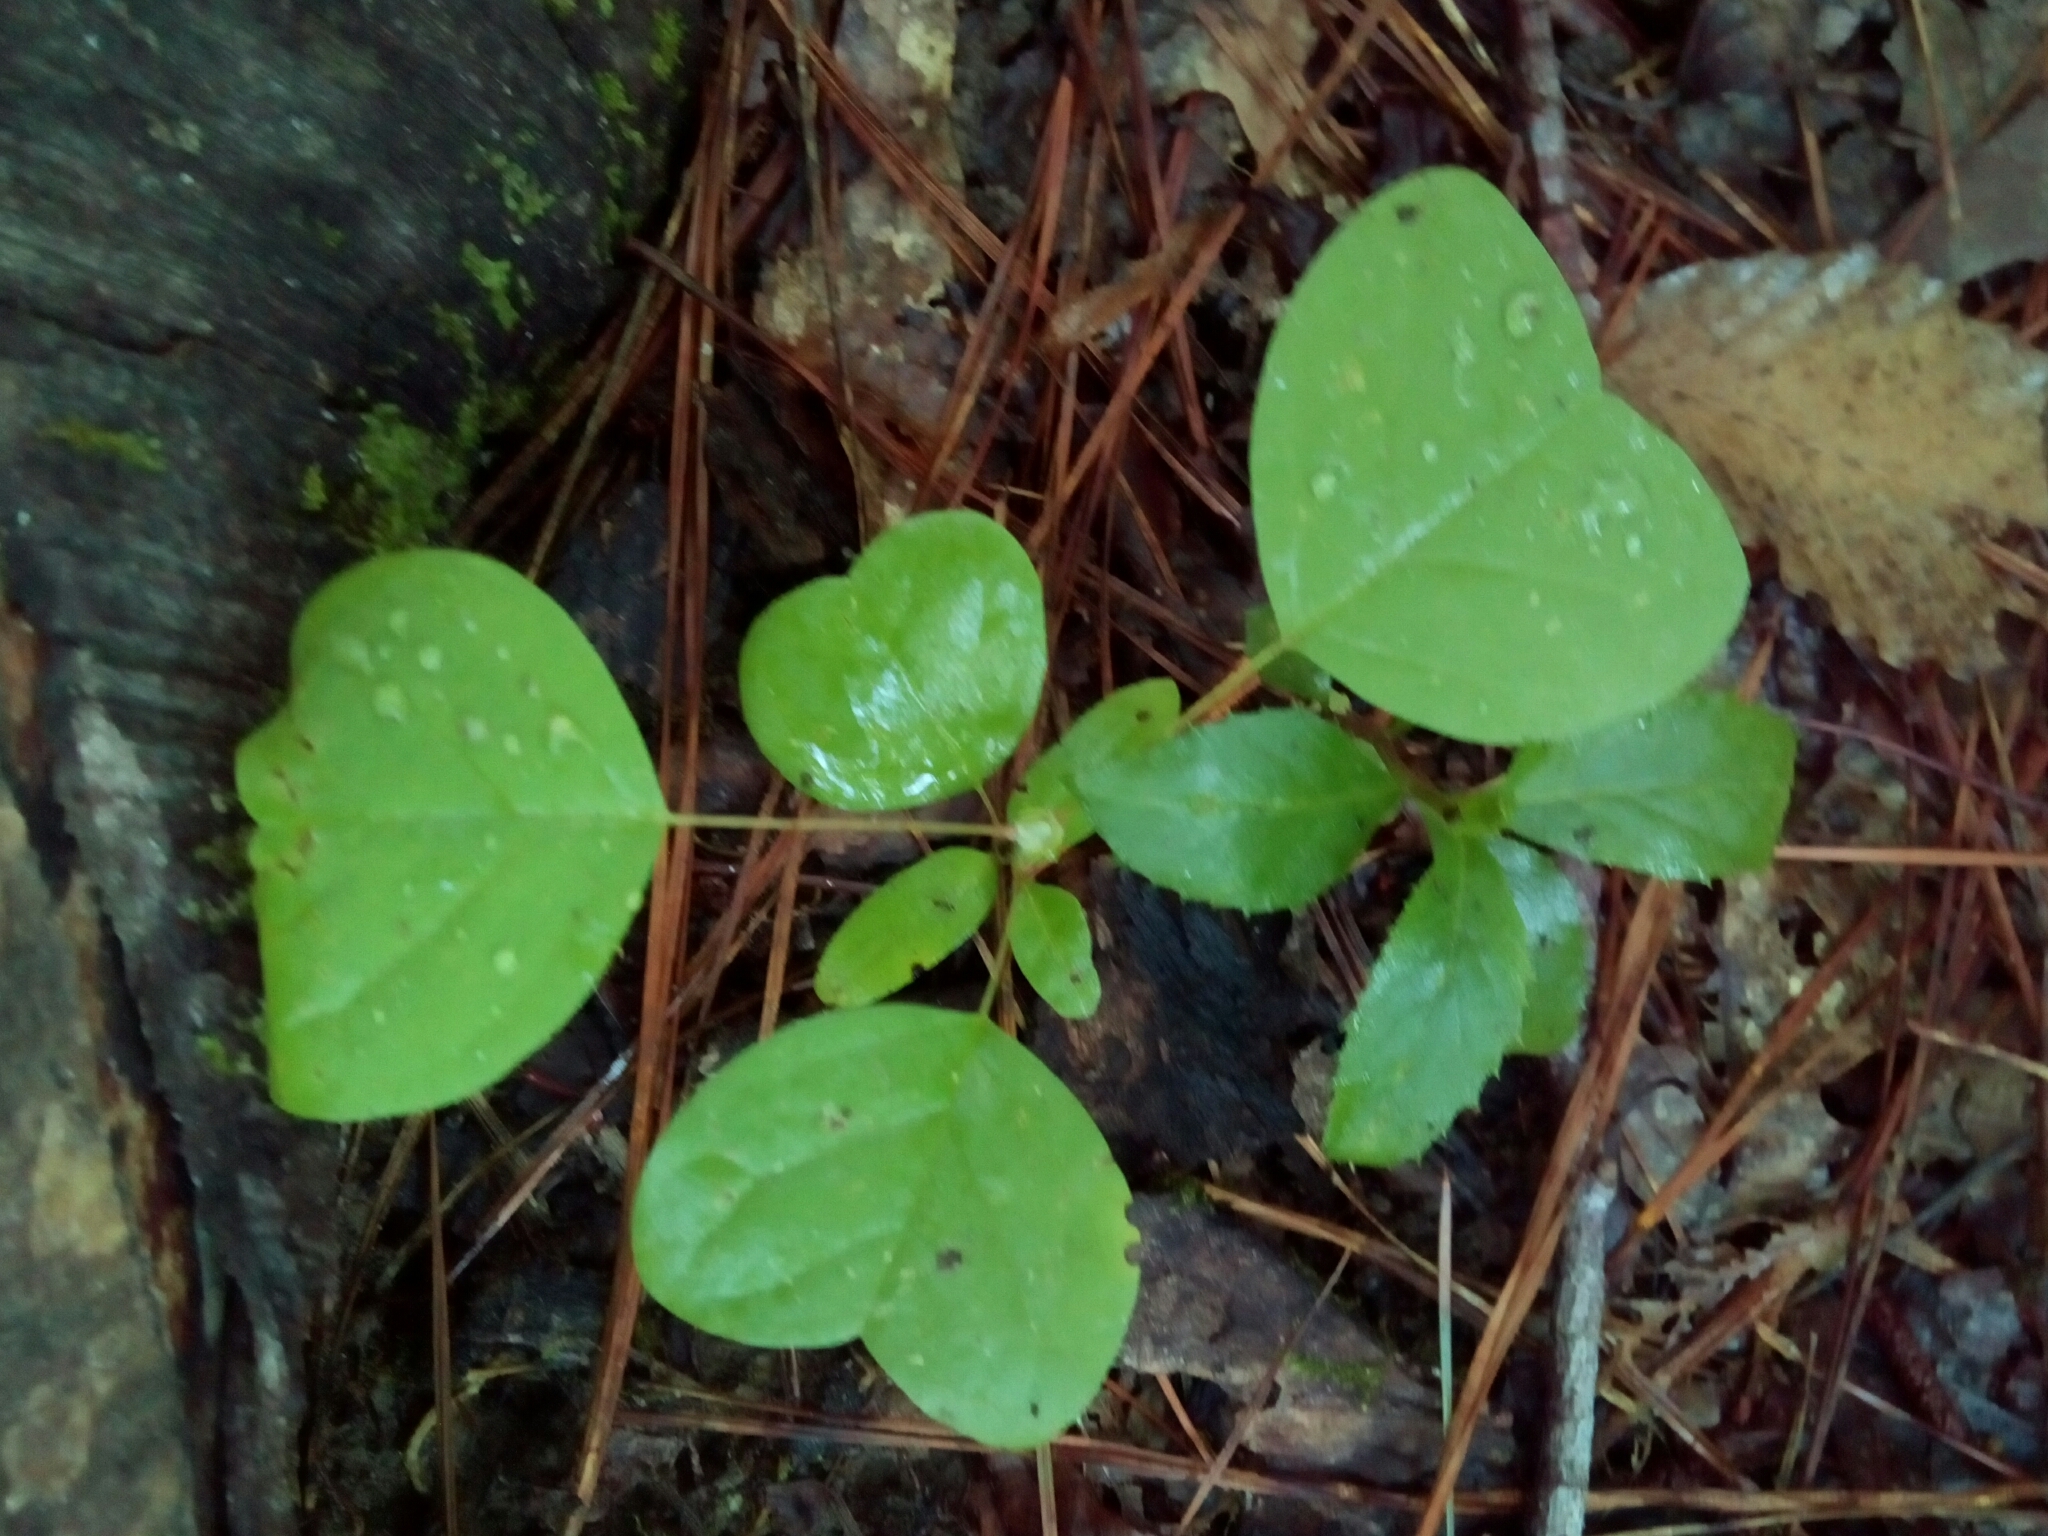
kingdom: Plantae
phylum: Tracheophyta
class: Magnoliopsida
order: Magnoliales
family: Magnoliaceae
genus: Liriodendron
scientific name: Liriodendron tulipifera
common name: Tulip tree
